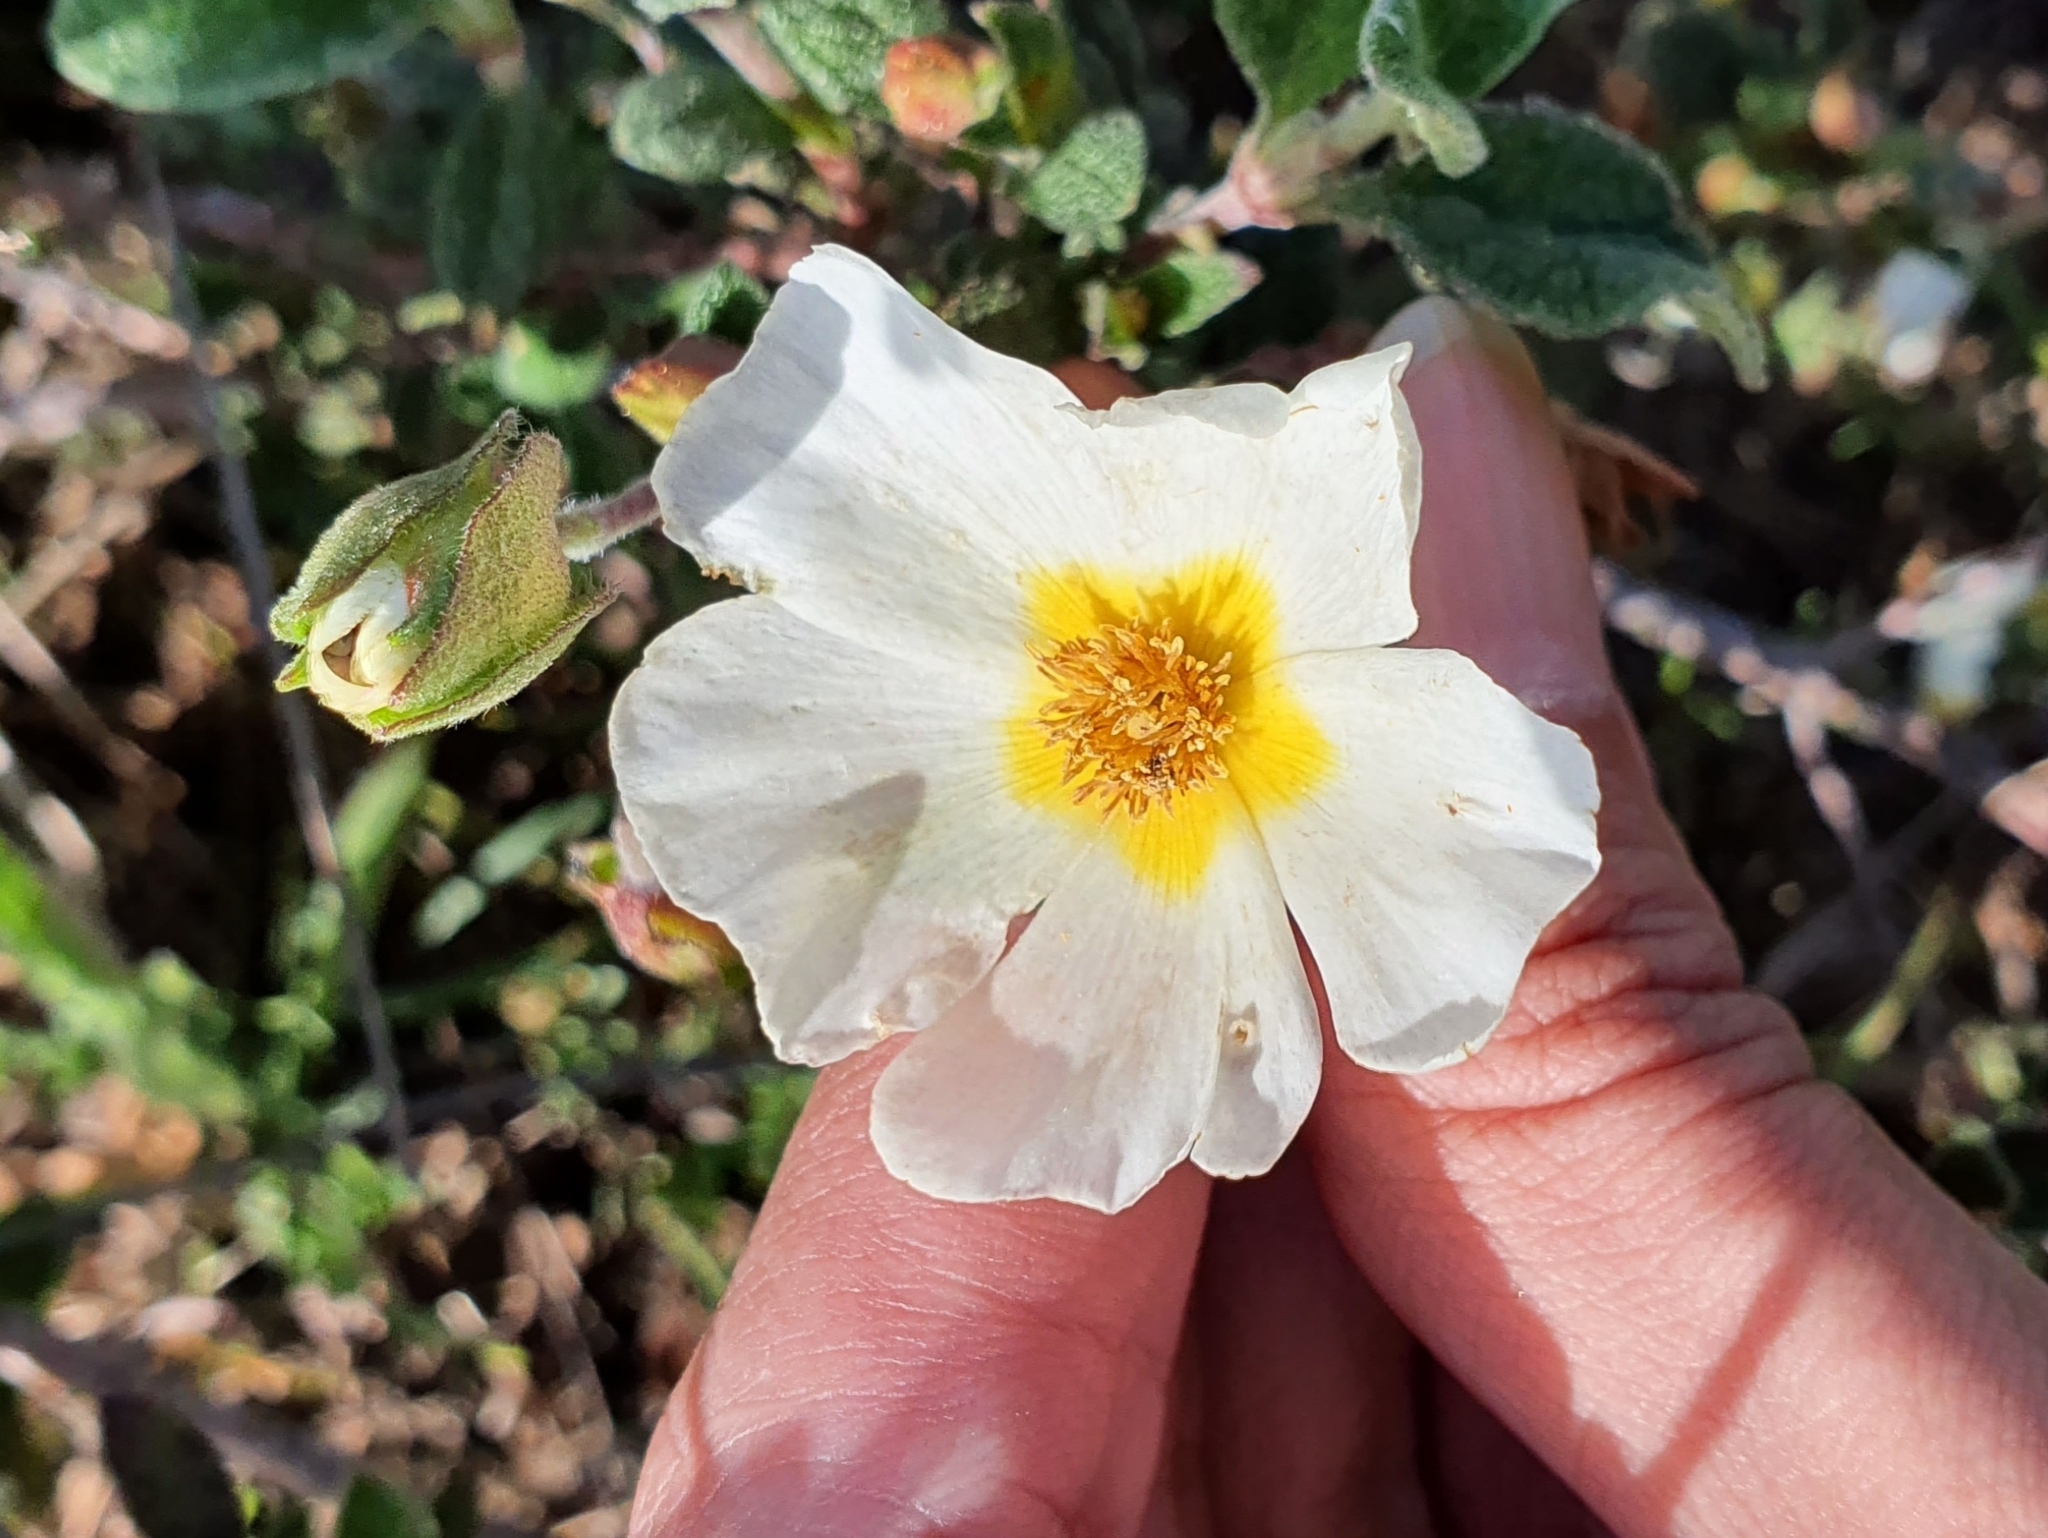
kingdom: Plantae
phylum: Tracheophyta
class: Magnoliopsida
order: Malvales
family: Cistaceae
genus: Cistus
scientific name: Cistus salviifolius
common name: Salvia cistus
